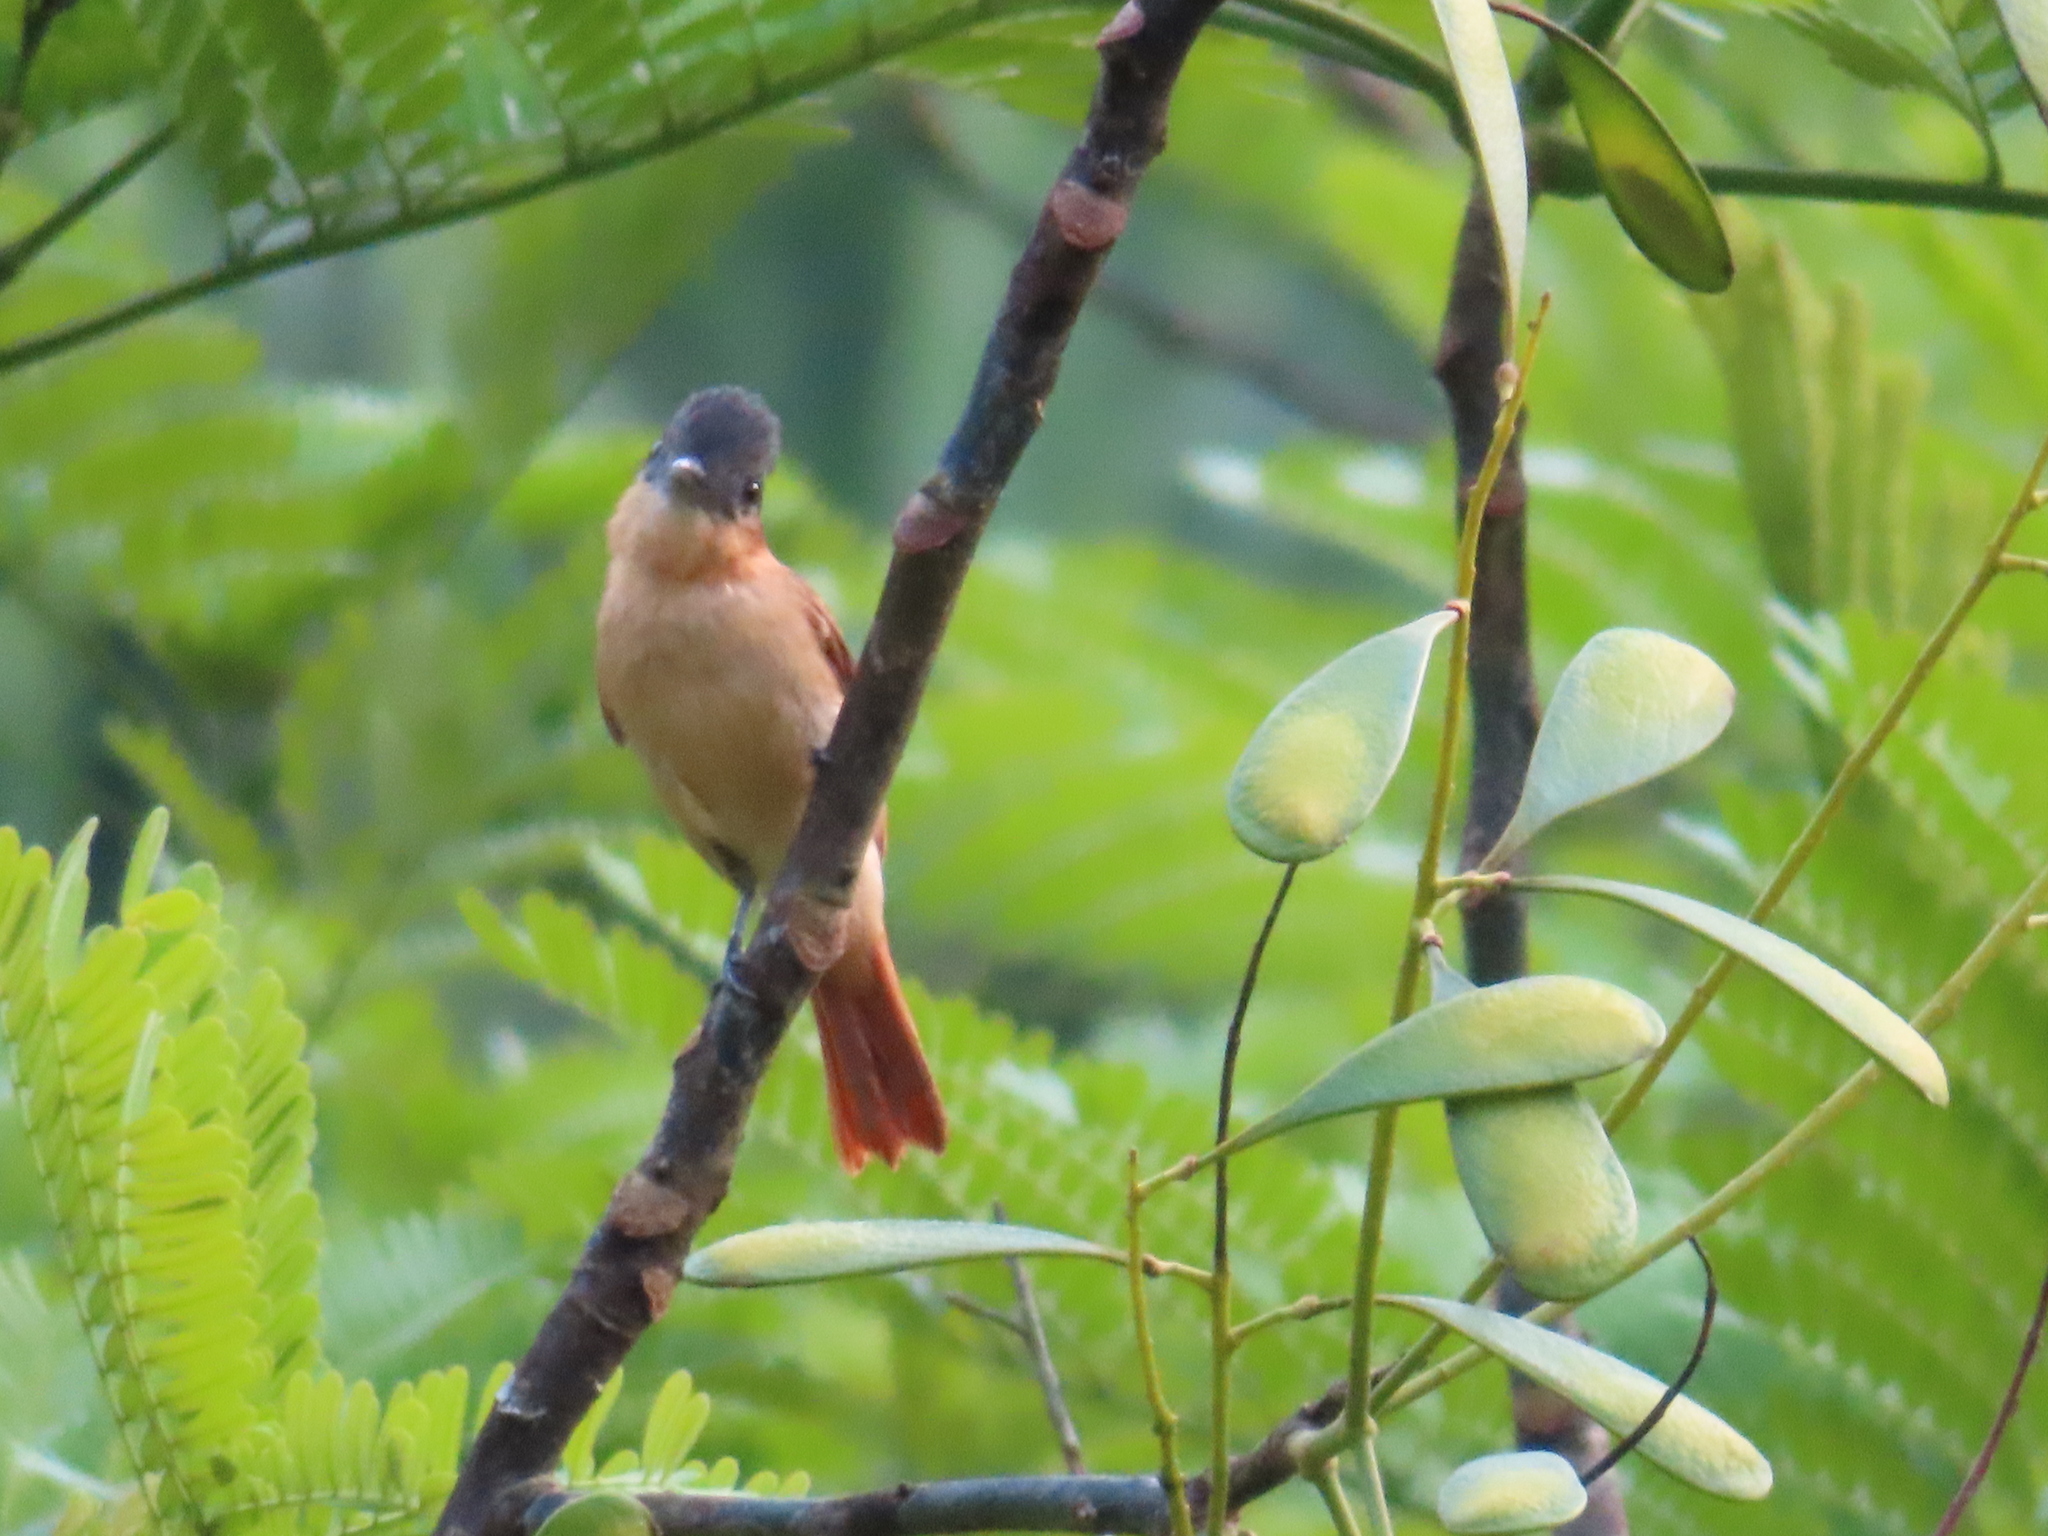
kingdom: Animalia
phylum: Chordata
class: Aves
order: Passeriformes
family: Cotingidae
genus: Pachyramphus
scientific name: Pachyramphus aglaiae
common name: Rose-throated becard
